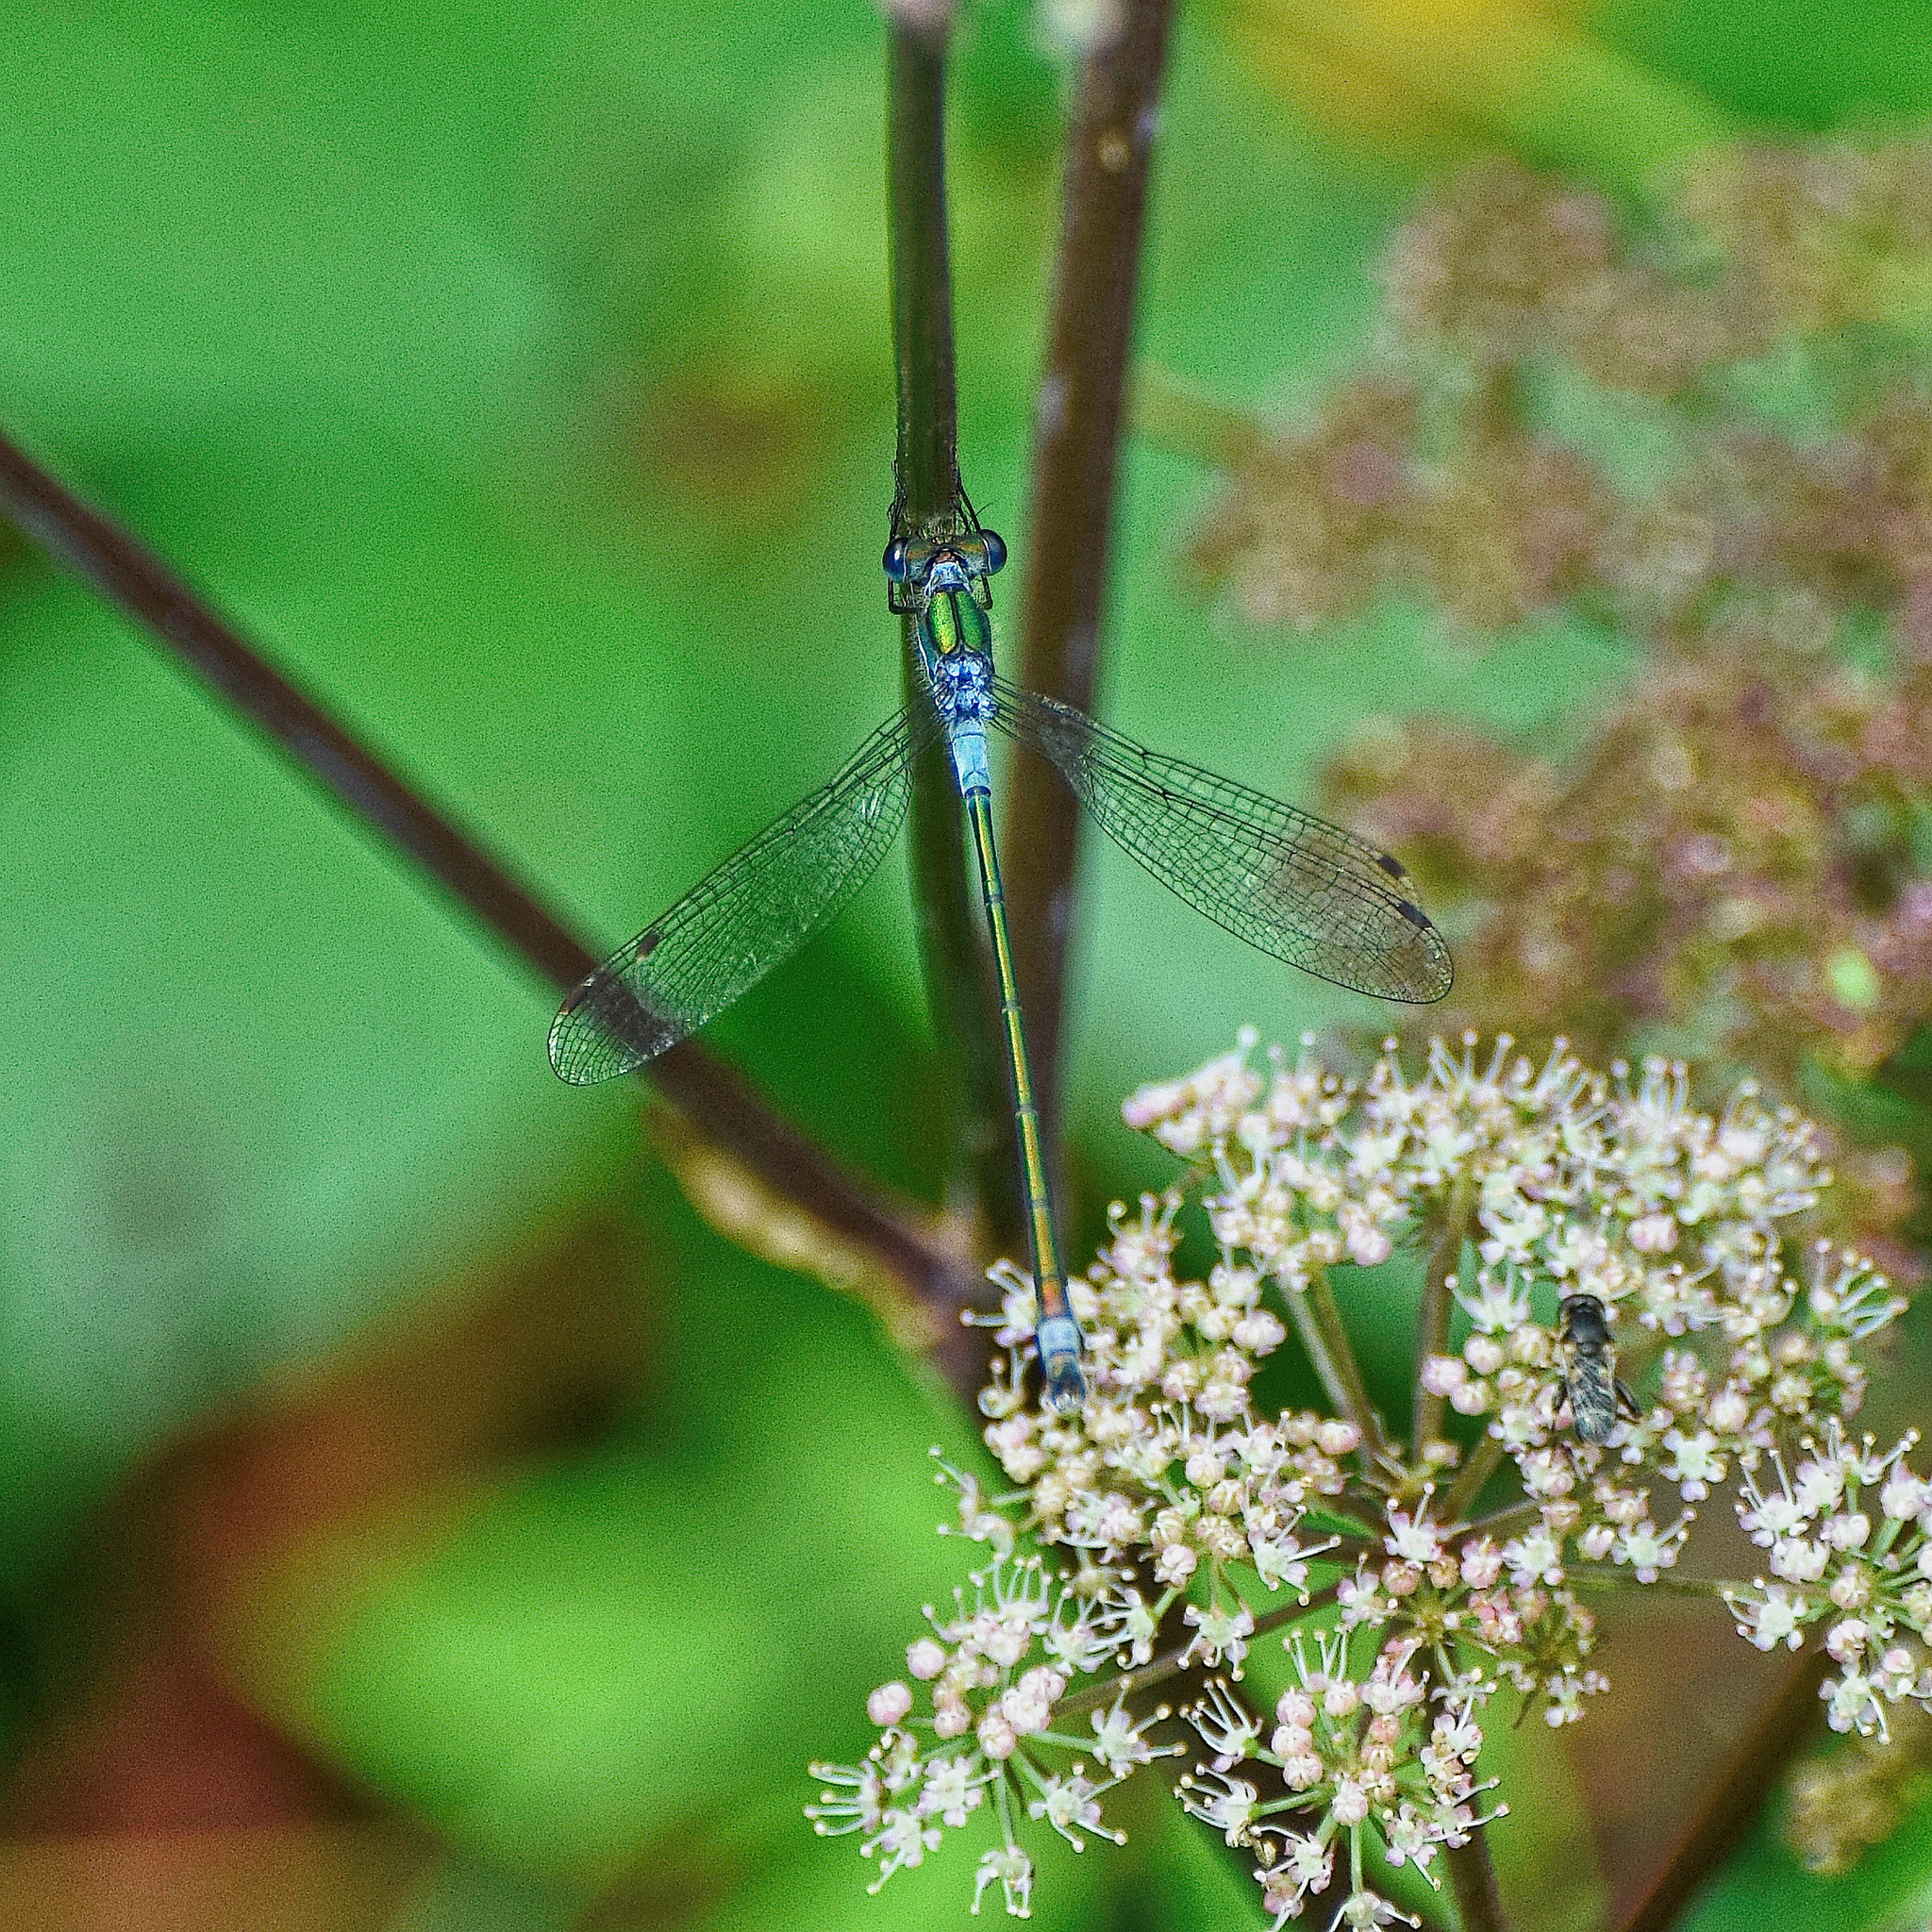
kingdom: Animalia
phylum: Arthropoda
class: Insecta
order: Odonata
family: Lestidae
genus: Lestes
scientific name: Lestes sponsa
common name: Common spreadwing
